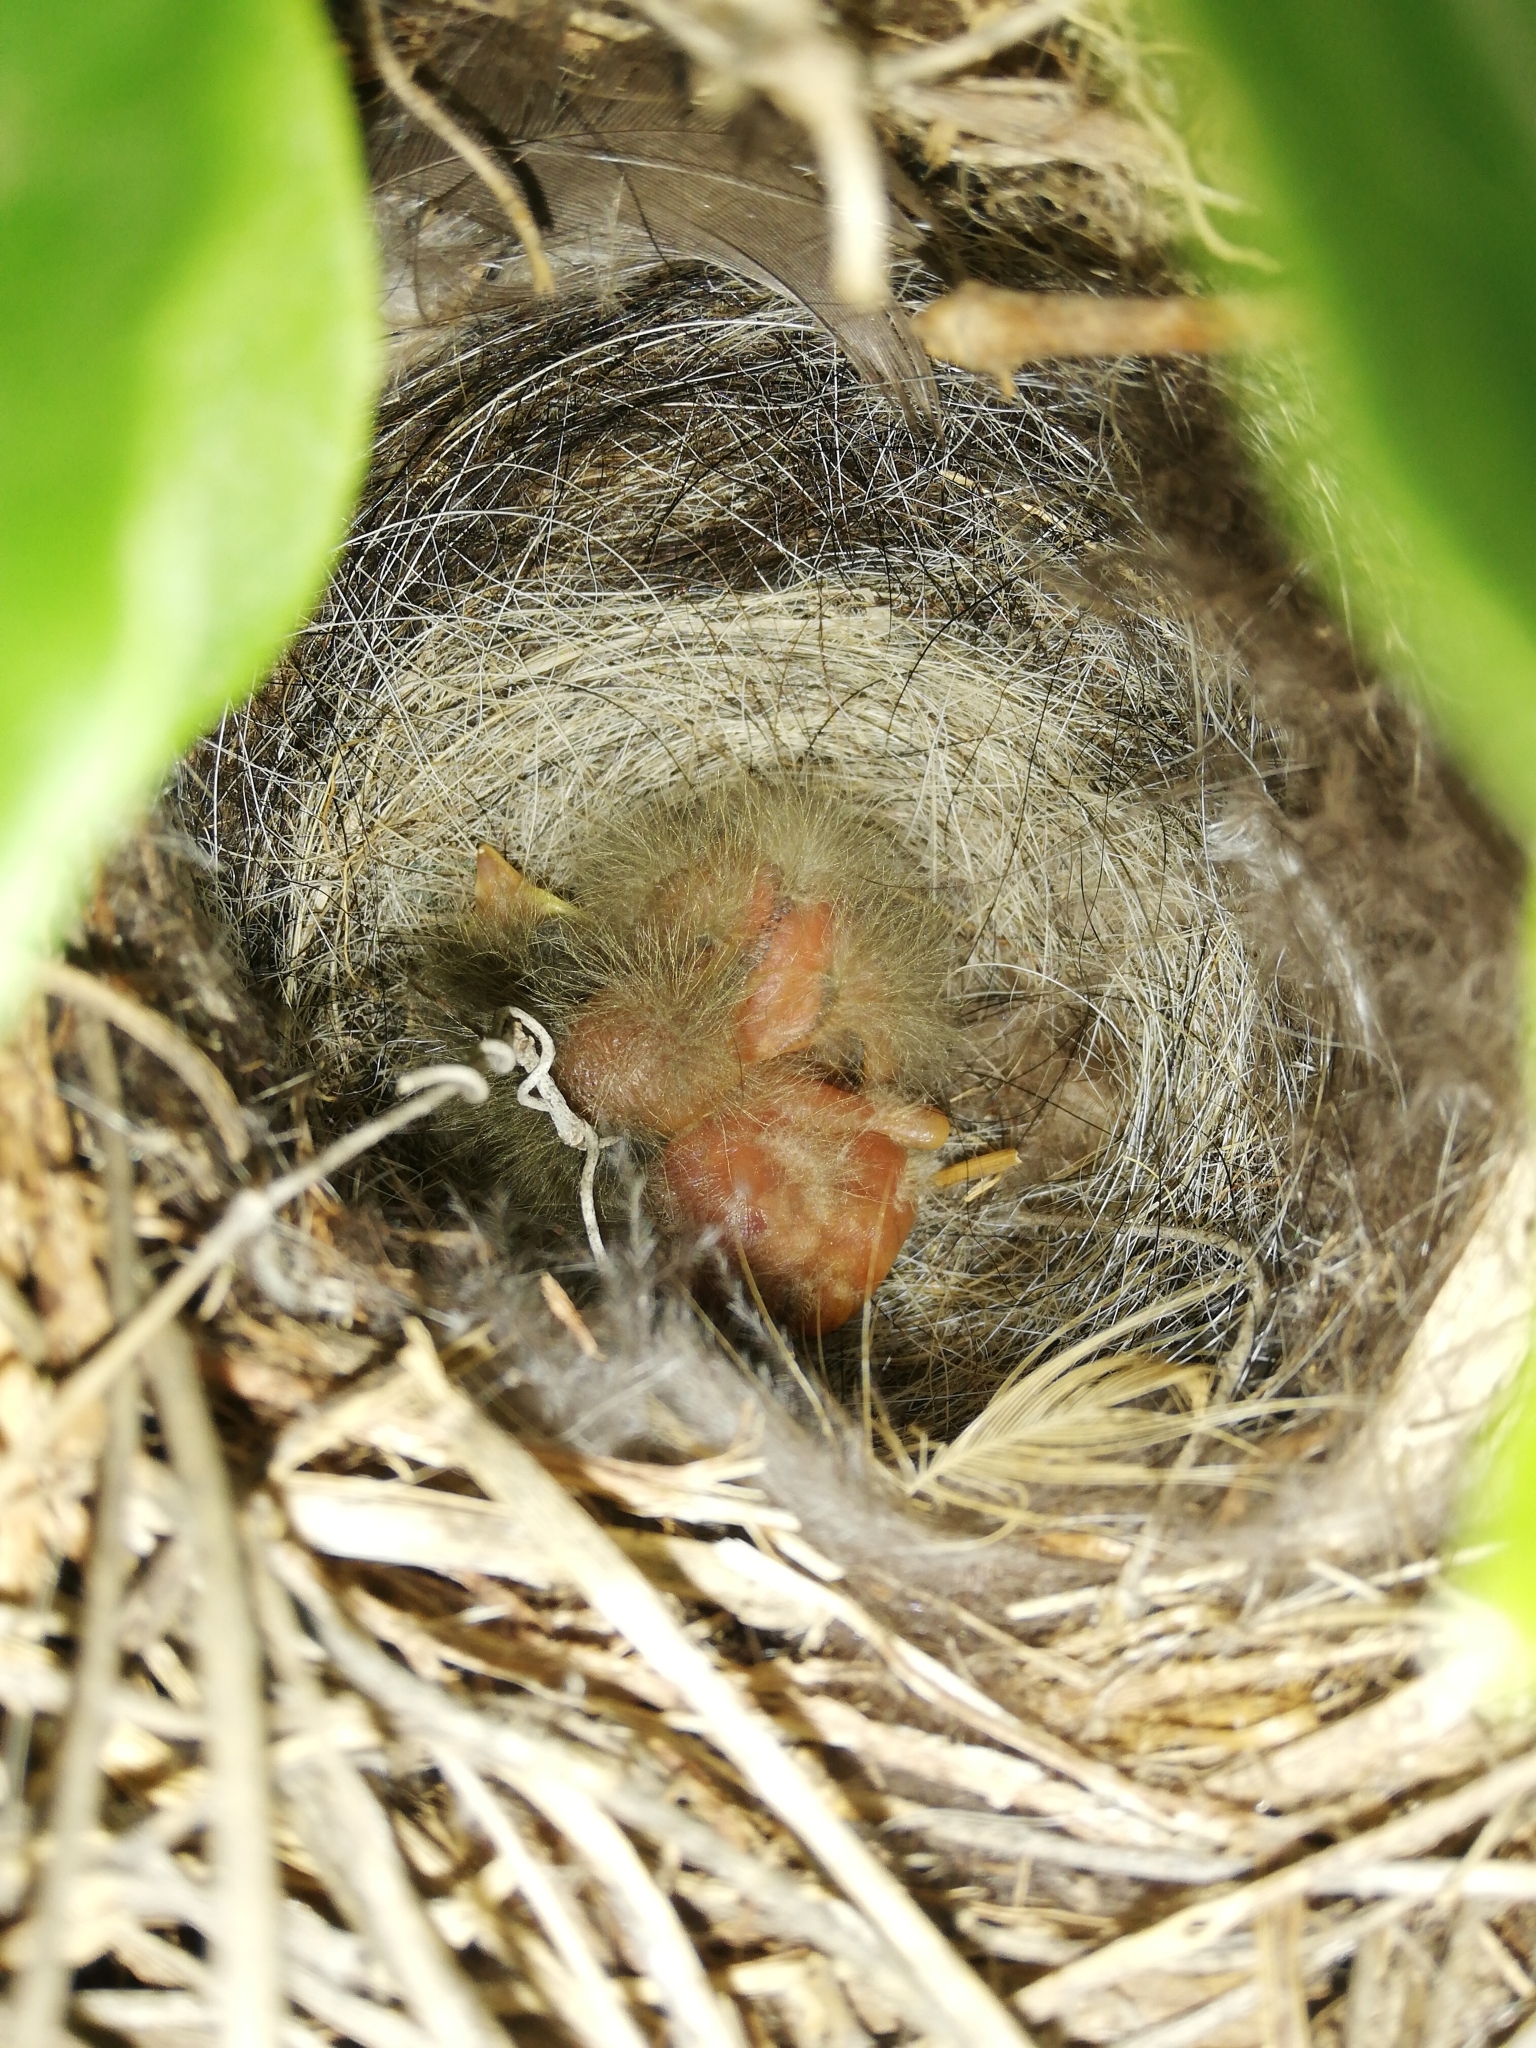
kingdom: Animalia
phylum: Chordata
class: Aves
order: Passeriformes
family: Motacillidae
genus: Motacilla
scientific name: Motacilla capensis
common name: Cape wagtail
